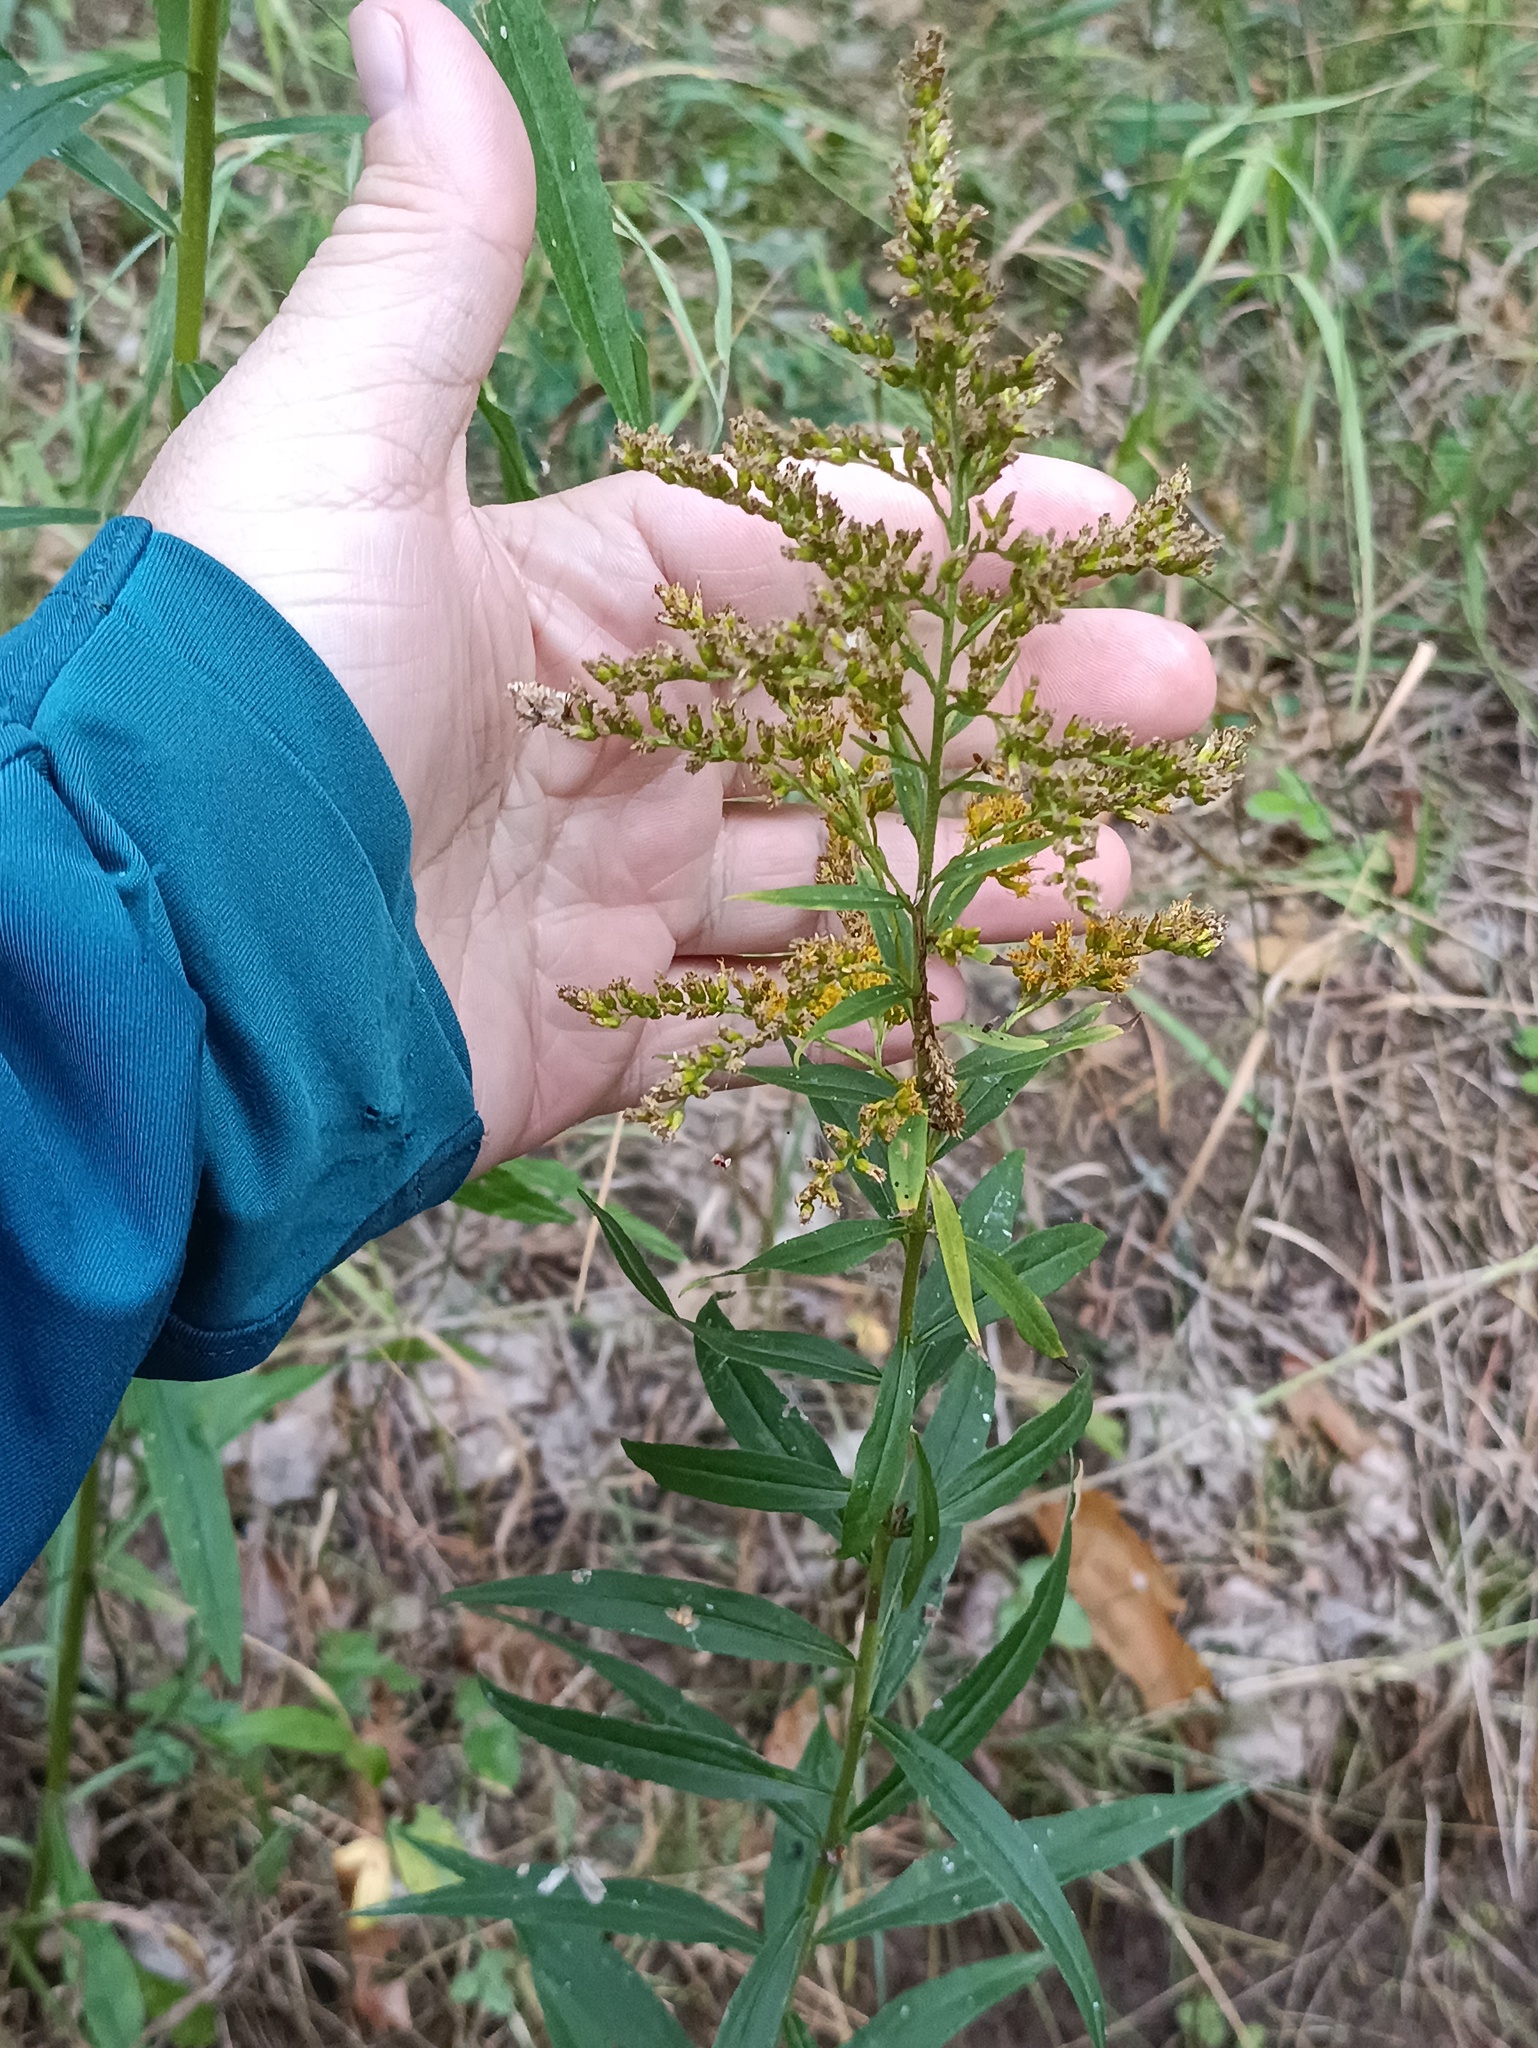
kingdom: Plantae
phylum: Tracheophyta
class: Magnoliopsida
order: Asterales
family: Asteraceae
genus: Solidago
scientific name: Solidago canadensis
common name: Canada goldenrod
